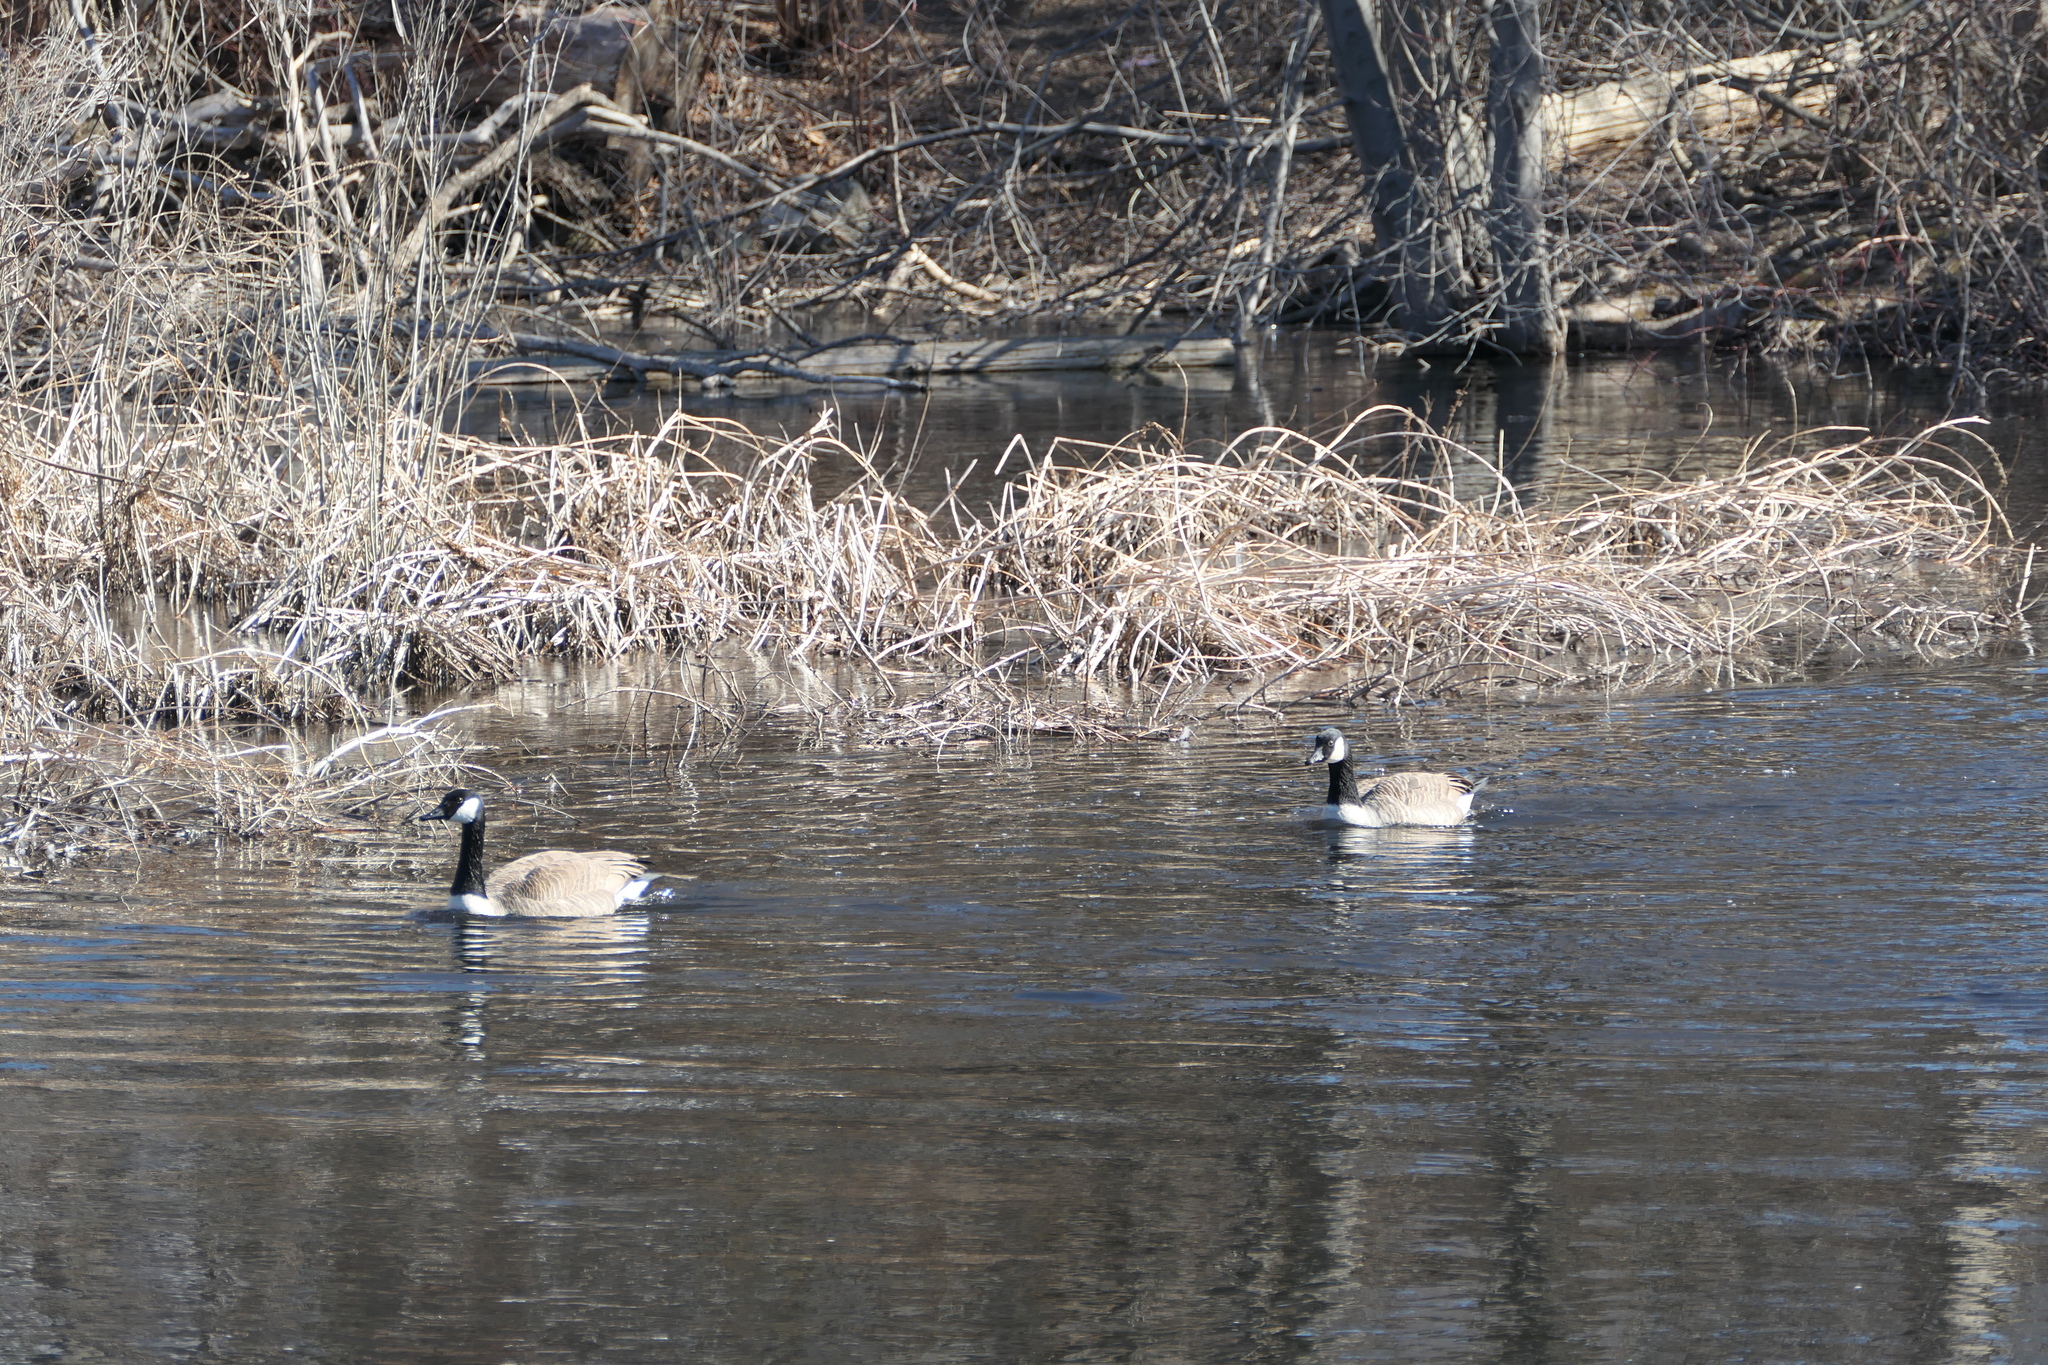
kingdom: Animalia
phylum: Chordata
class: Aves
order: Anseriformes
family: Anatidae
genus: Branta
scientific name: Branta canadensis
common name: Canada goose
